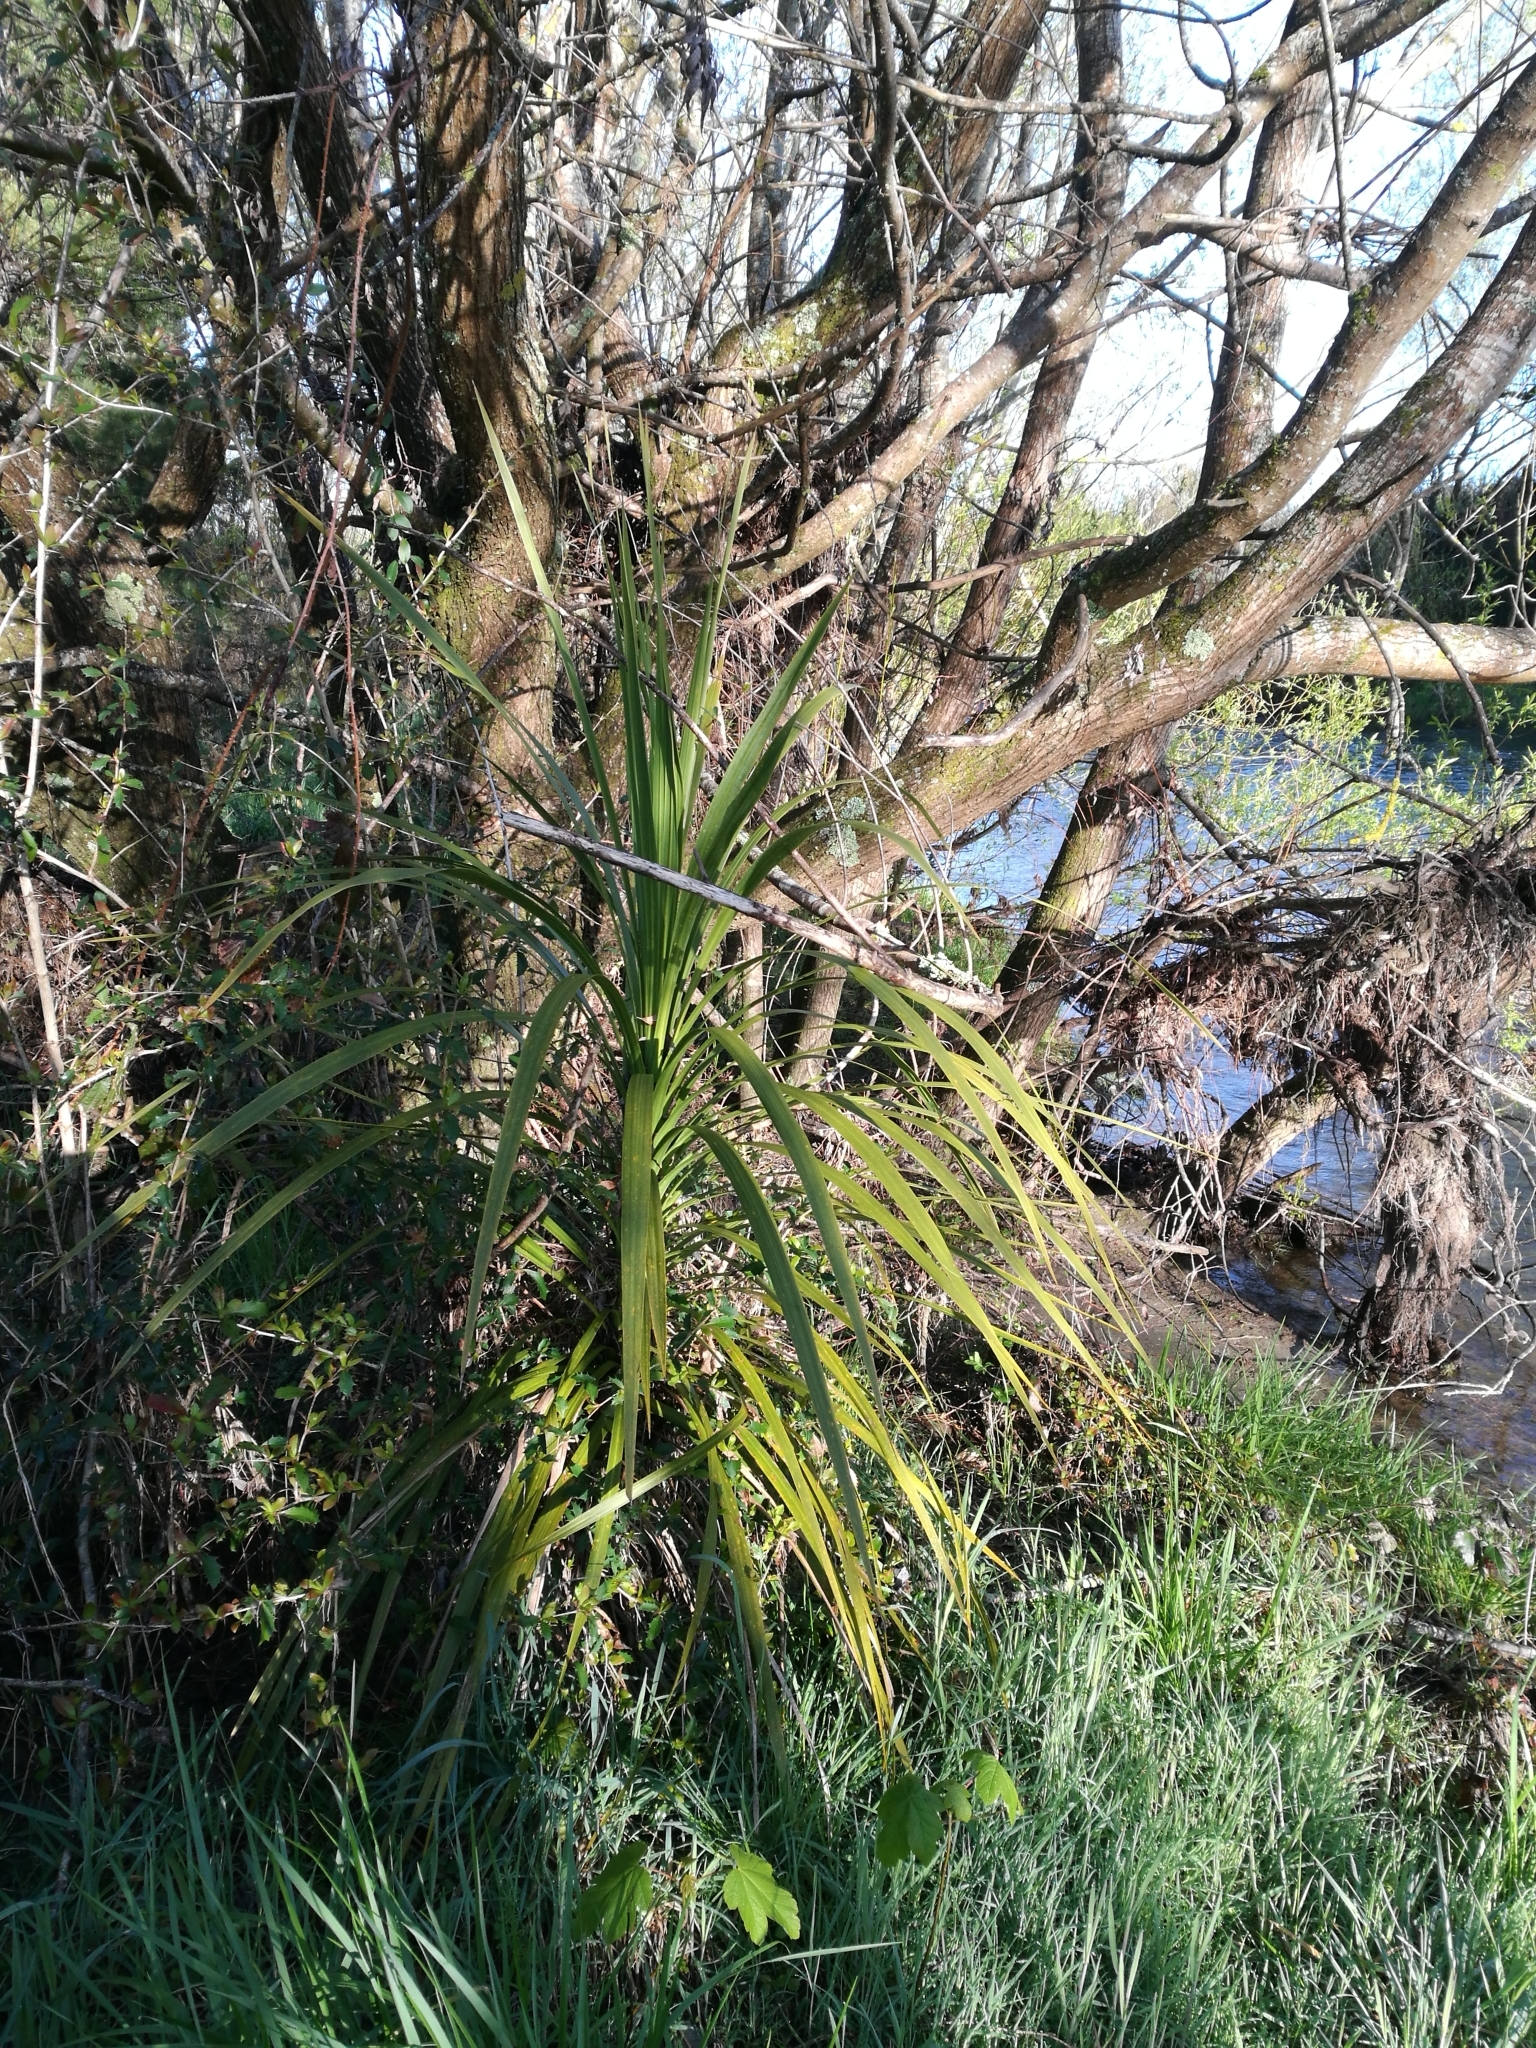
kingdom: Plantae
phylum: Tracheophyta
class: Liliopsida
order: Asparagales
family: Asparagaceae
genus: Cordyline
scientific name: Cordyline australis
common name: Cabbage-palm
